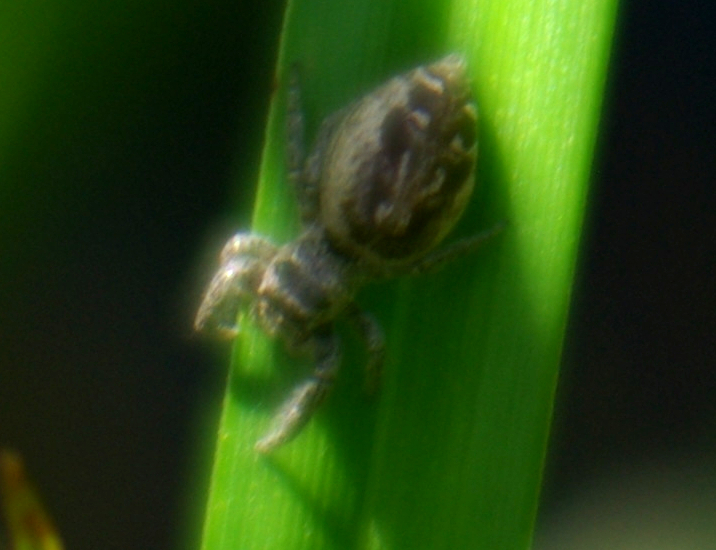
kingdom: Animalia
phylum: Arthropoda
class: Arachnida
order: Araneae
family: Salticidae
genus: Eris
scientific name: Eris militaris
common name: Bronze jumper
